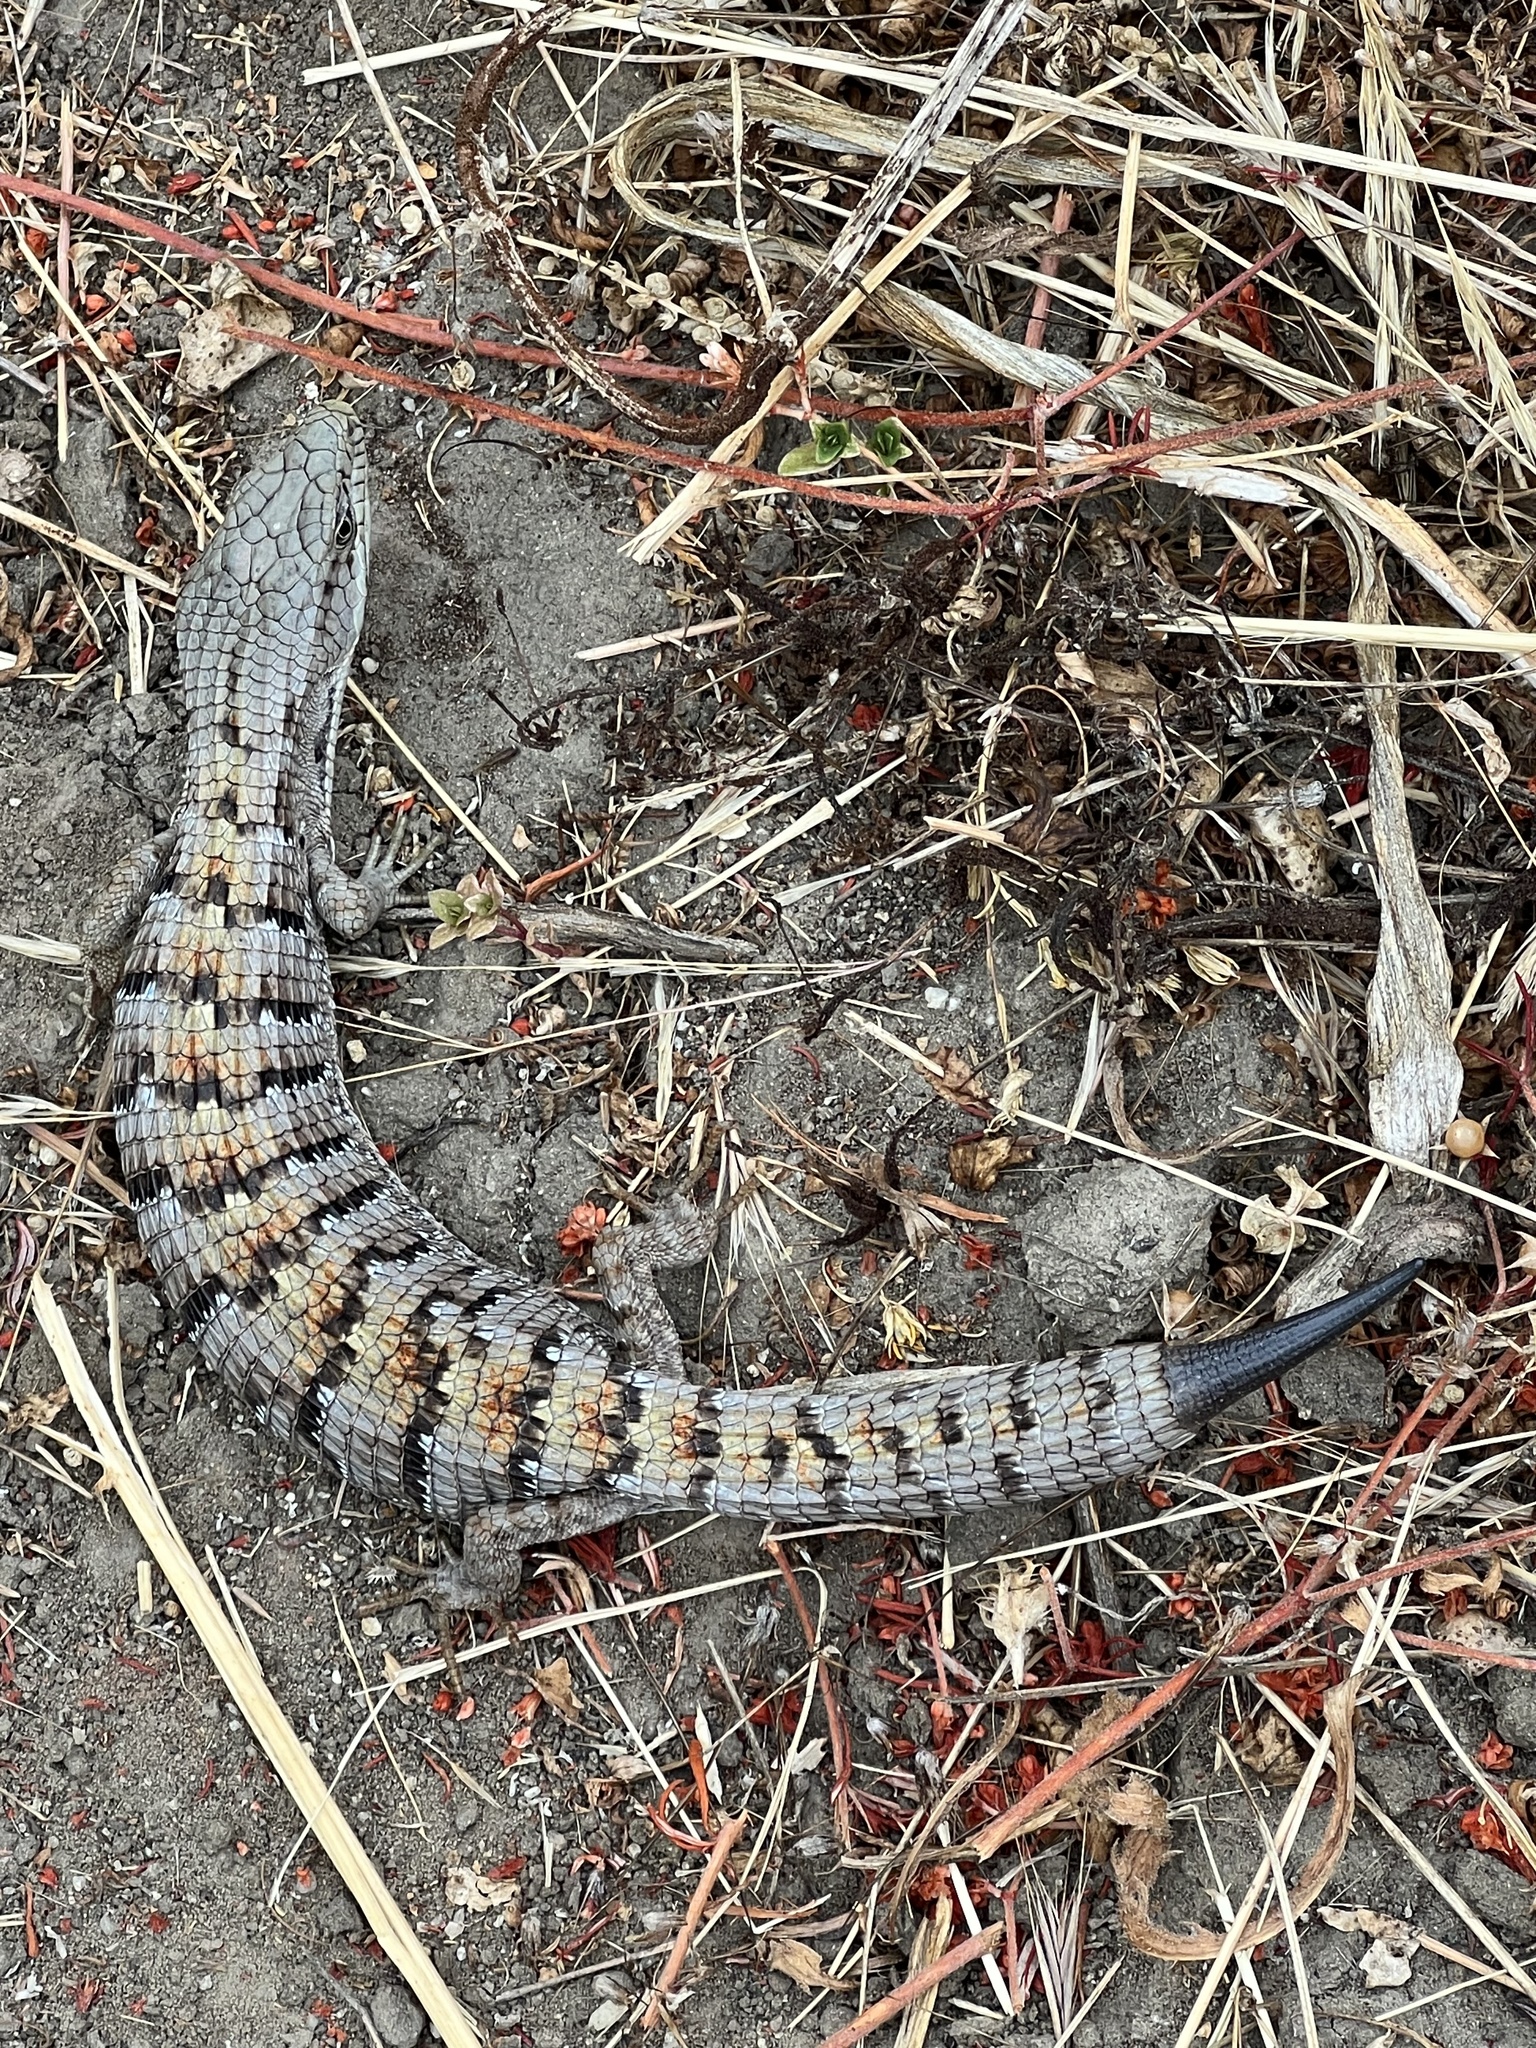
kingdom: Animalia
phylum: Chordata
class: Squamata
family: Anguidae
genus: Elgaria
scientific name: Elgaria multicarinata
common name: Southern alligator lizard
